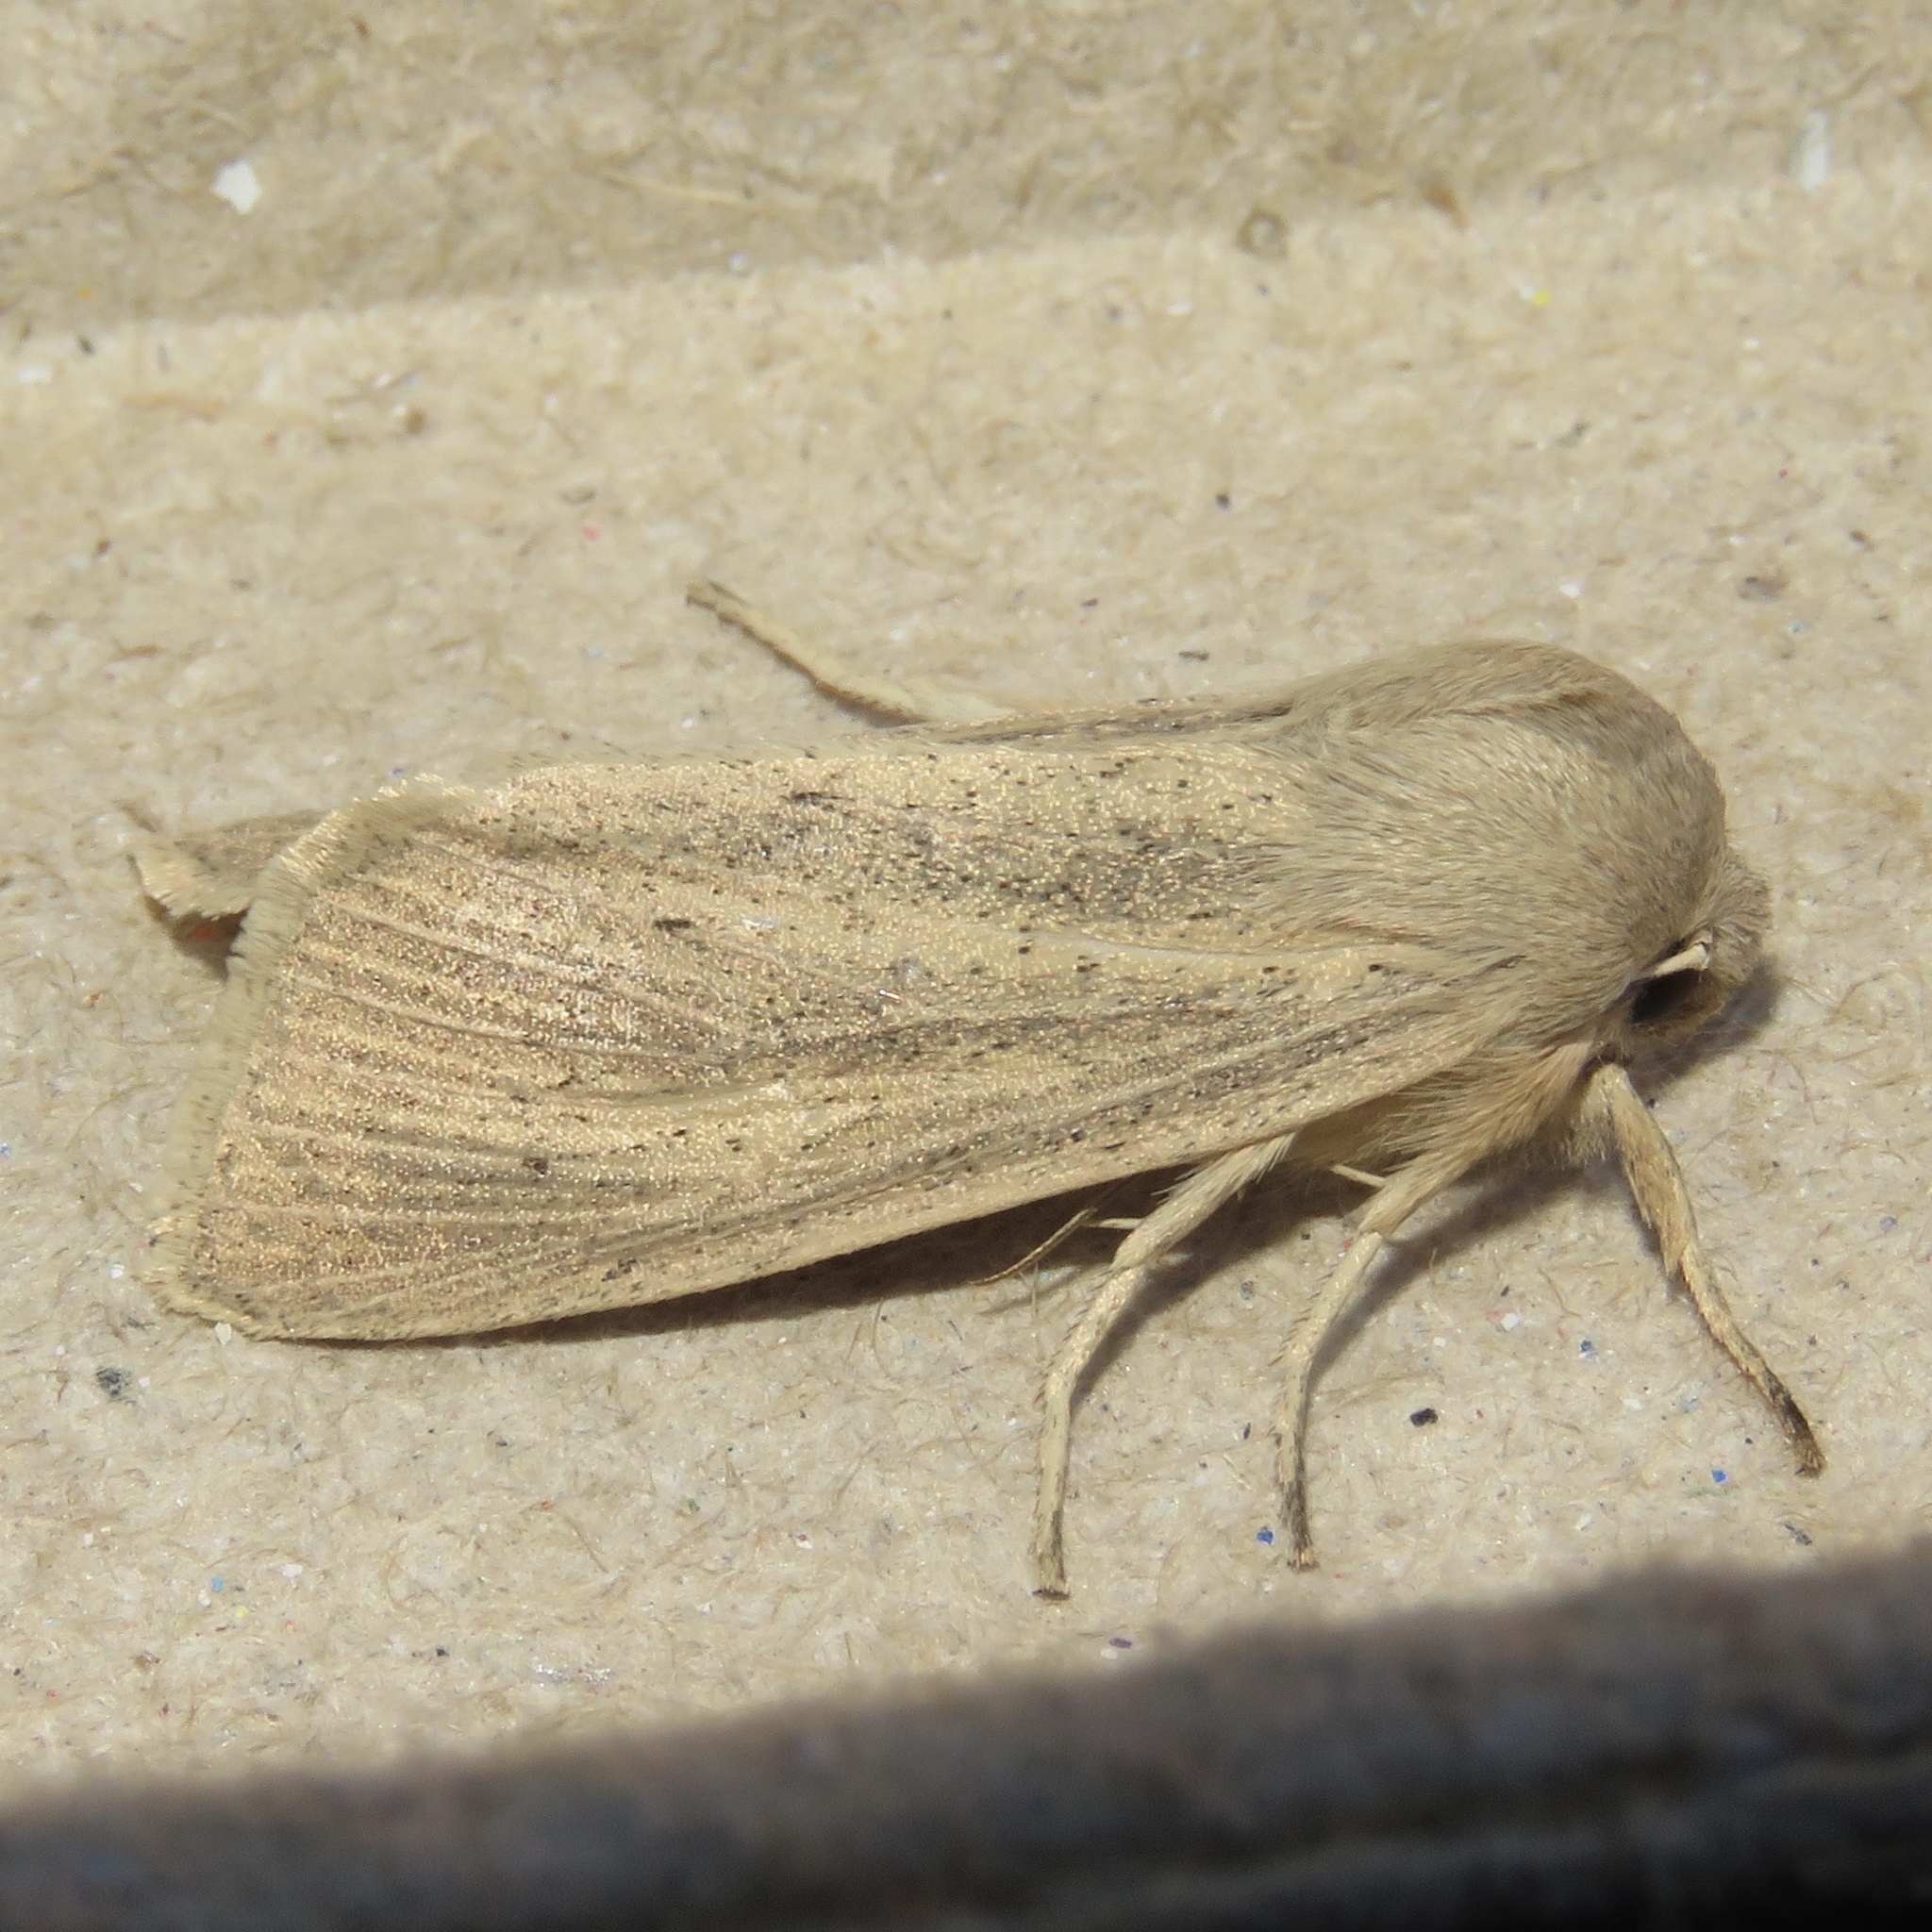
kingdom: Animalia
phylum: Arthropoda
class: Insecta
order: Lepidoptera
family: Noctuidae
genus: Rhizedra
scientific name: Rhizedra lutosa
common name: Large wainscot
